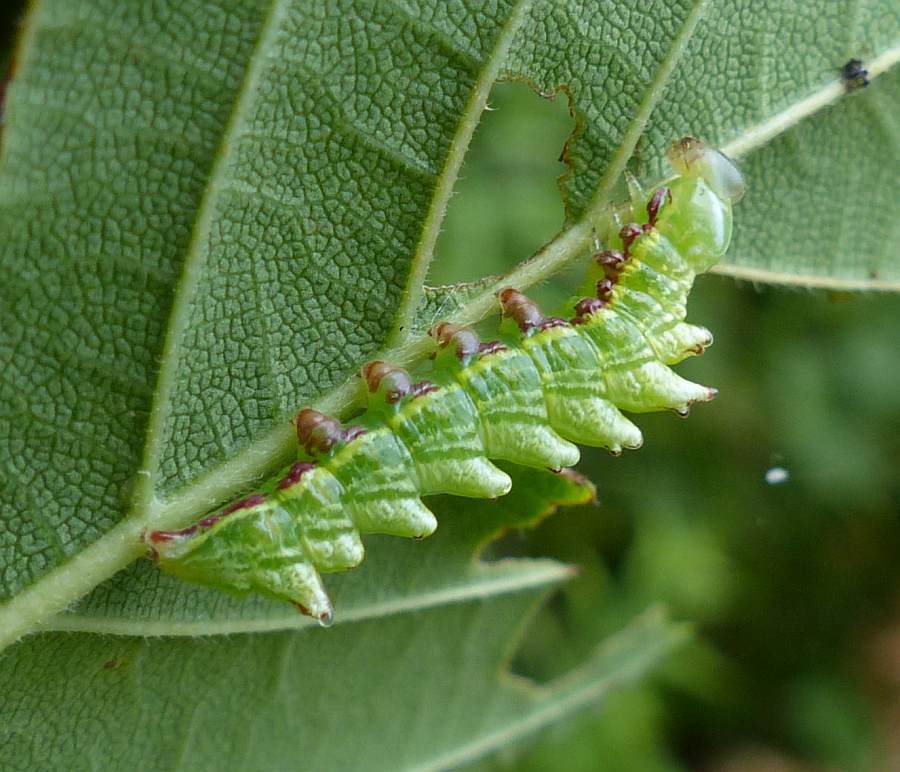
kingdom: Animalia
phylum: Arthropoda
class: Insecta
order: Lepidoptera
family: Notodontidae
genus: Nerice
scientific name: Nerice bidentata
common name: Double-toothed prominent
